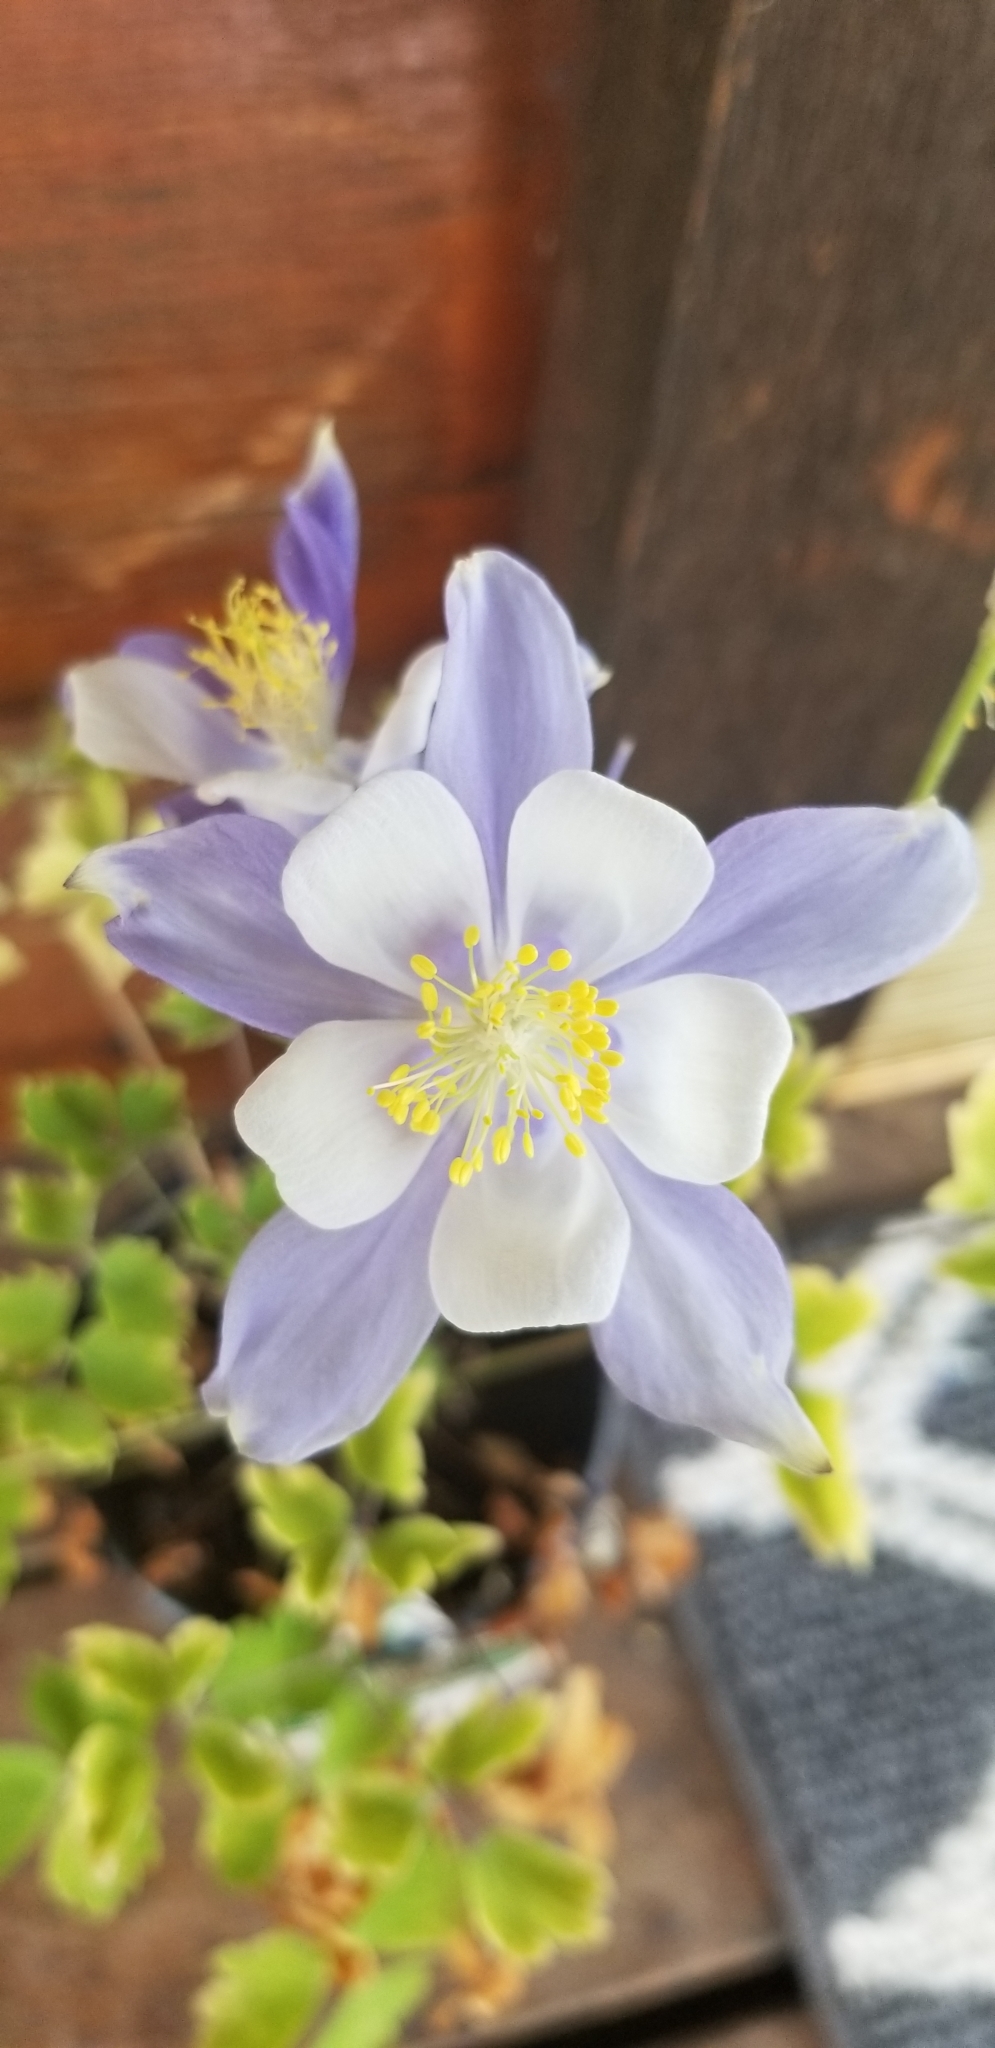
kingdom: Plantae
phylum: Tracheophyta
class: Magnoliopsida
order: Ranunculales
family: Ranunculaceae
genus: Aquilegia
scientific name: Aquilegia coerulea
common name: Rocky mountain columbine
